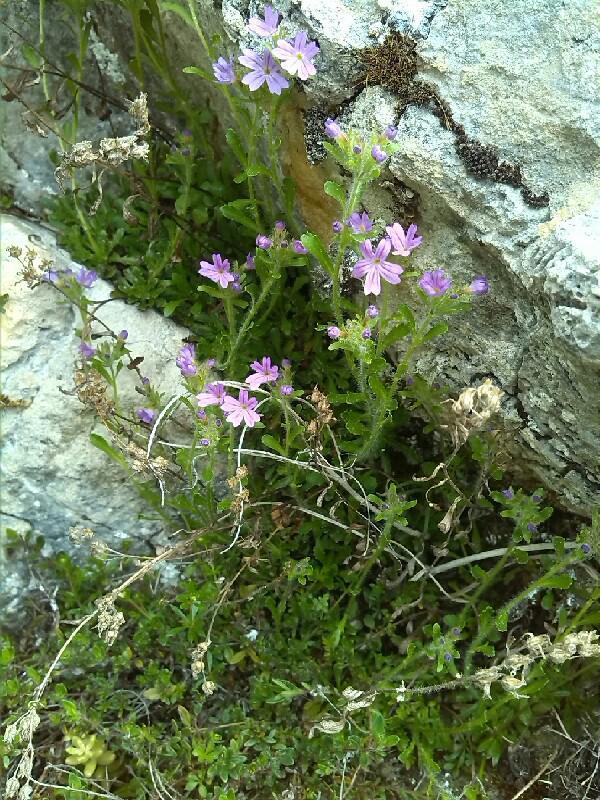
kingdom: Plantae
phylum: Tracheophyta
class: Magnoliopsida
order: Lamiales
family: Plantaginaceae
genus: Erinus
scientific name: Erinus alpinus
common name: Fairy foxglove
